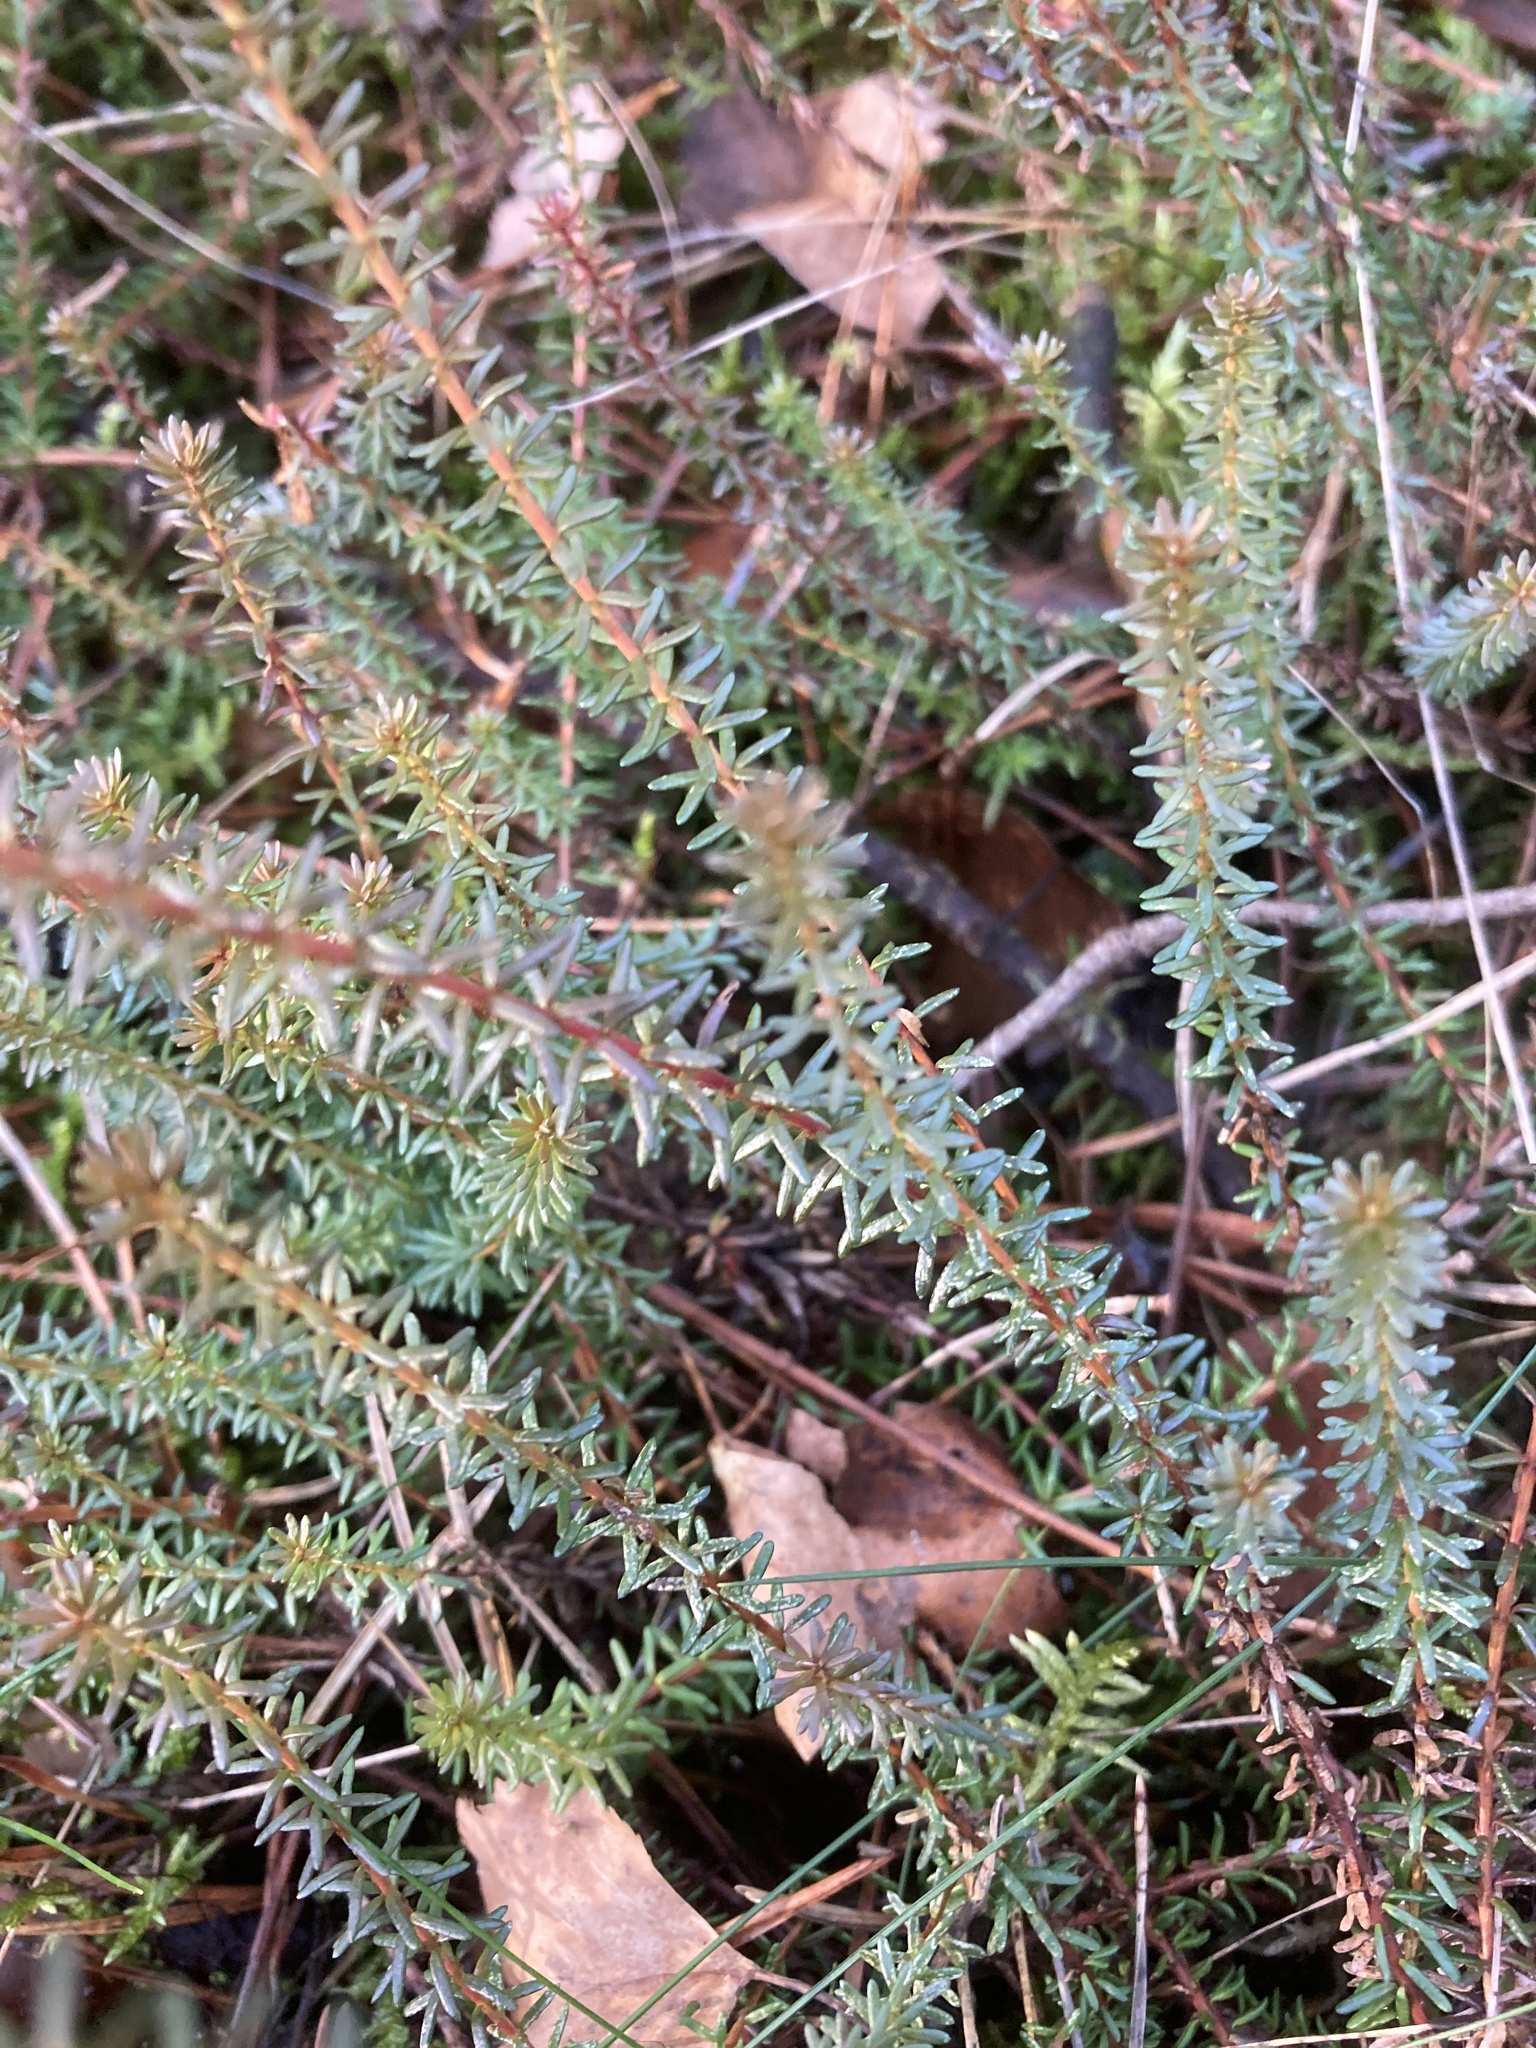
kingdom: Plantae
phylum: Tracheophyta
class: Magnoliopsida
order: Ericales
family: Ericaceae
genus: Empetrum
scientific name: Empetrum nigrum
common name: Black crowberry
